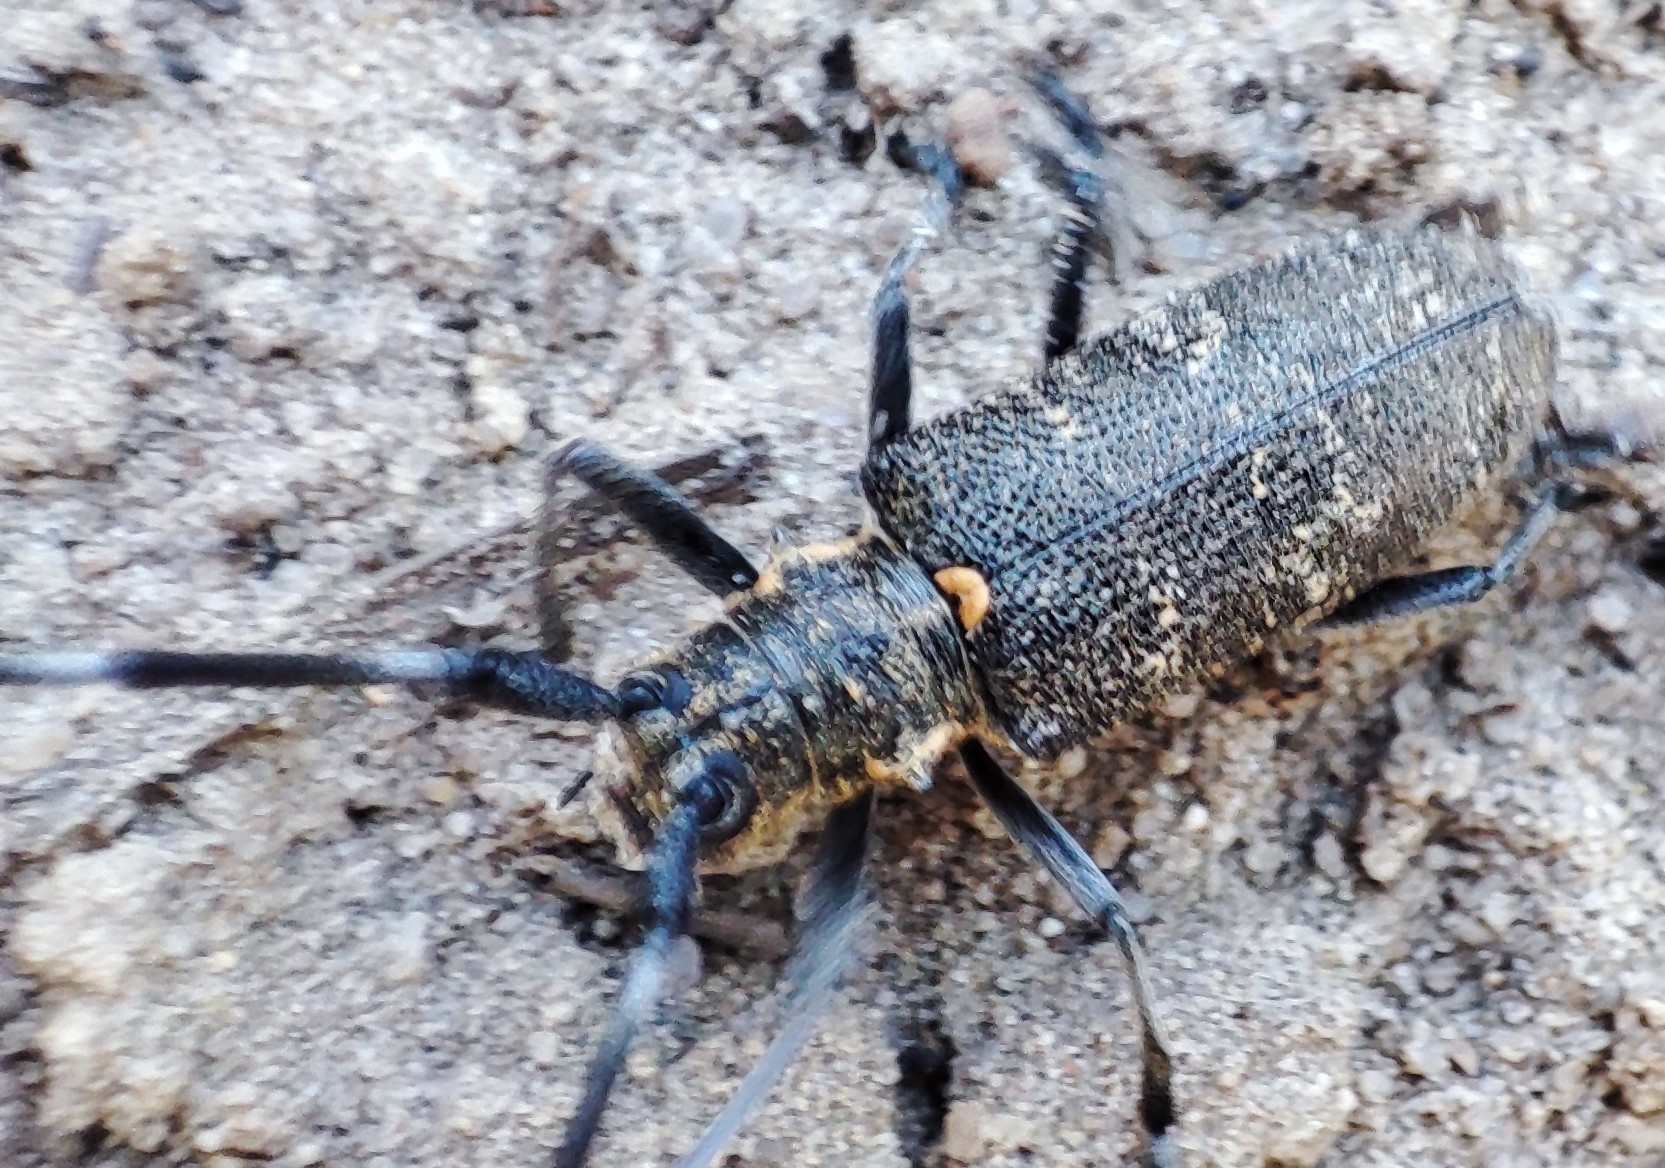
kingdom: Animalia
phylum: Arthropoda
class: Insecta
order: Coleoptera
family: Cerambycidae
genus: Monochamus
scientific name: Monochamus galloprovincialis
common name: Pine sawyer
